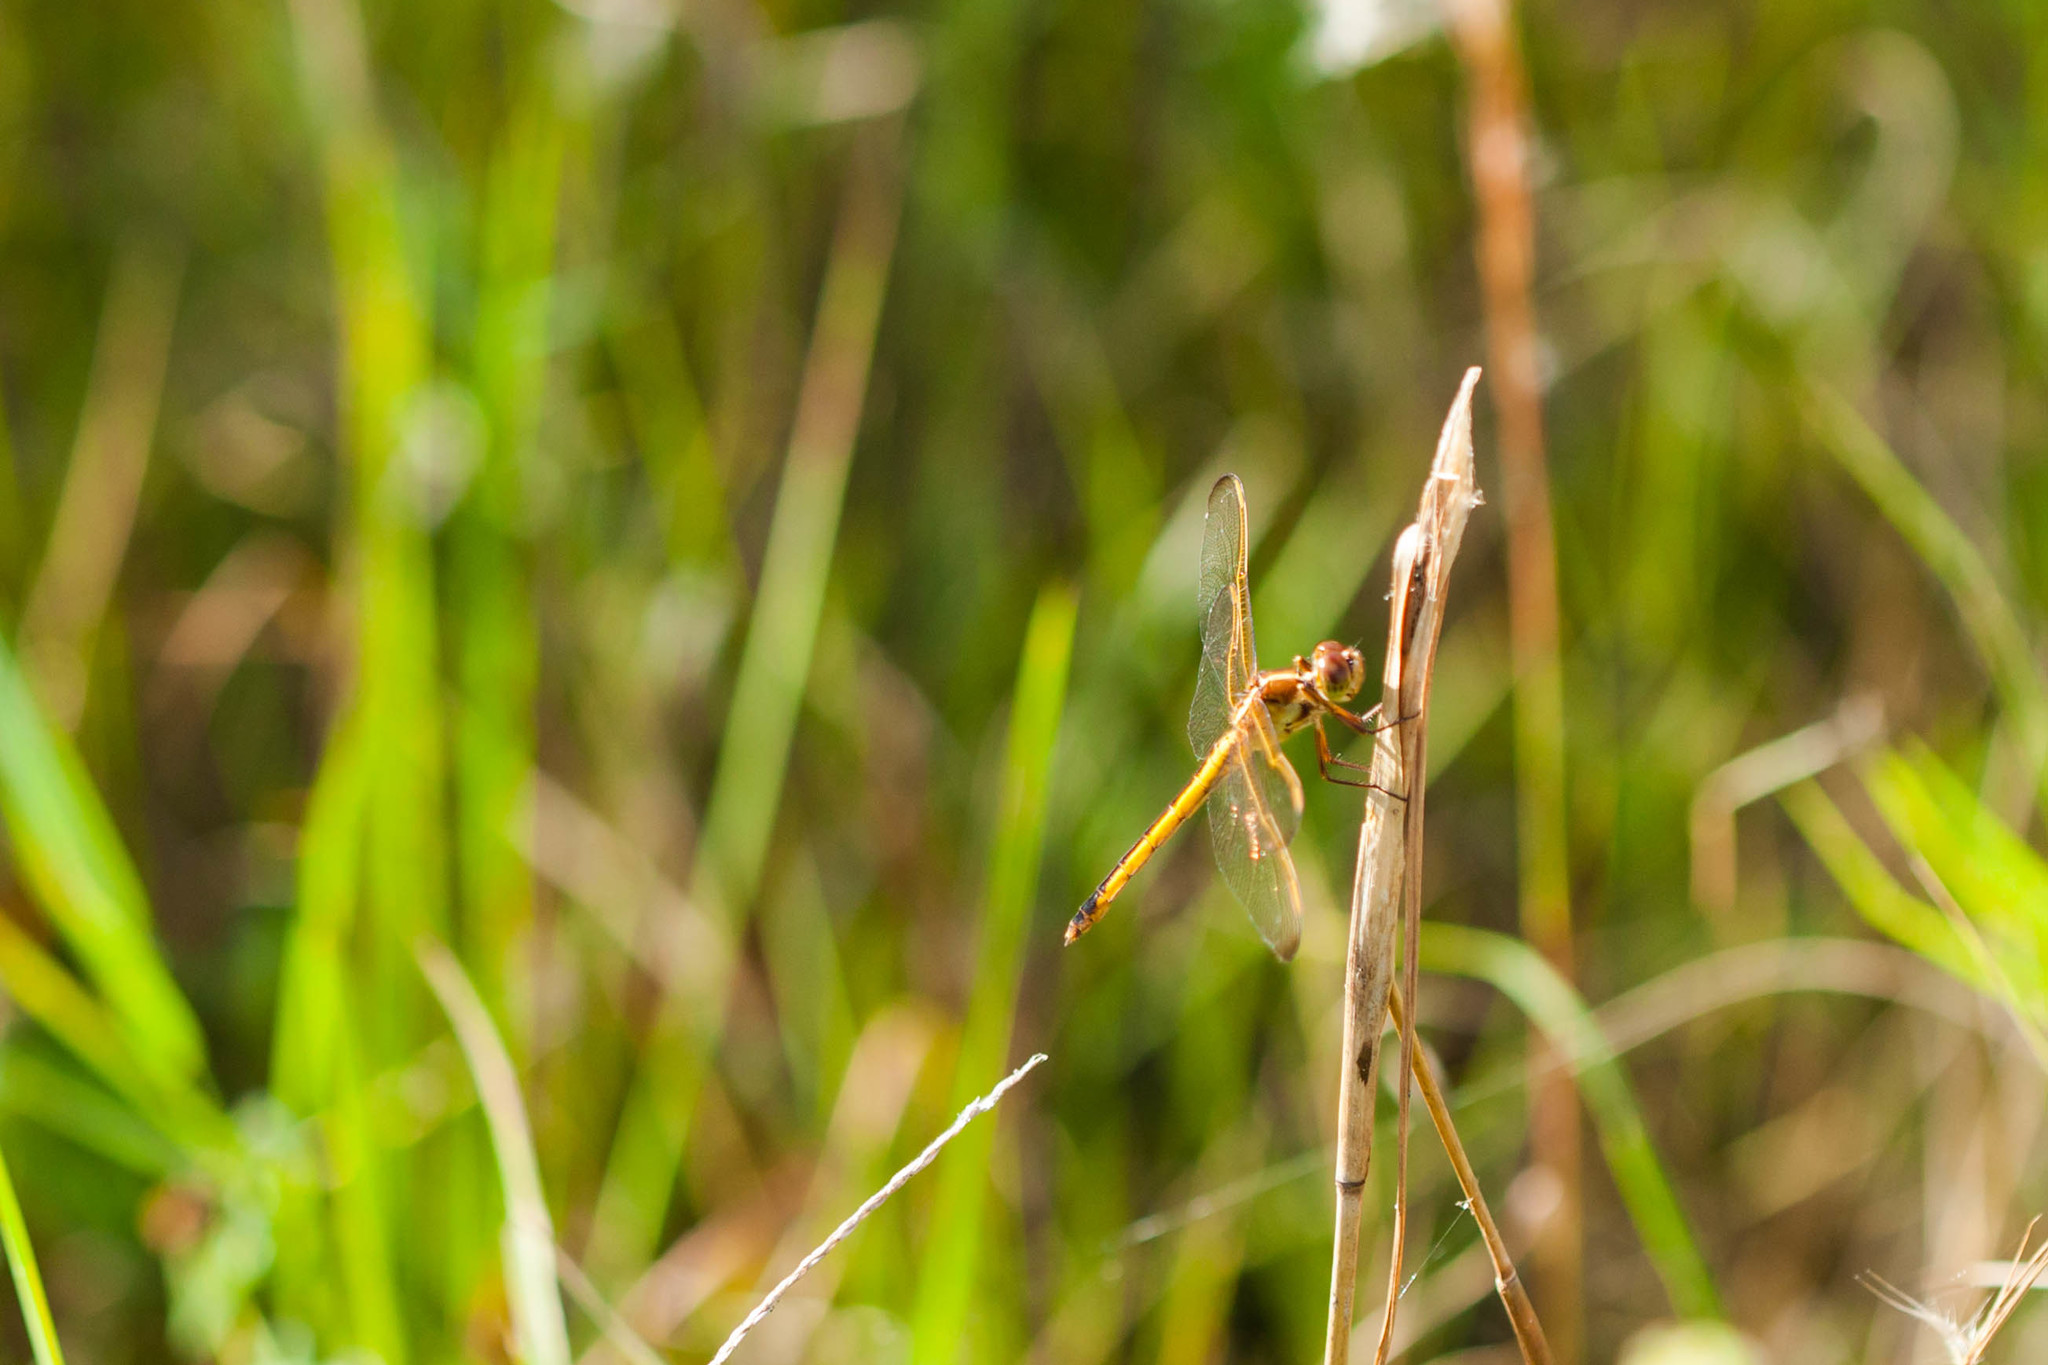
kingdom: Animalia
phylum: Arthropoda
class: Insecta
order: Odonata
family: Libellulidae
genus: Libellula
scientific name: Libellula needhami
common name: Needham's skimmer
